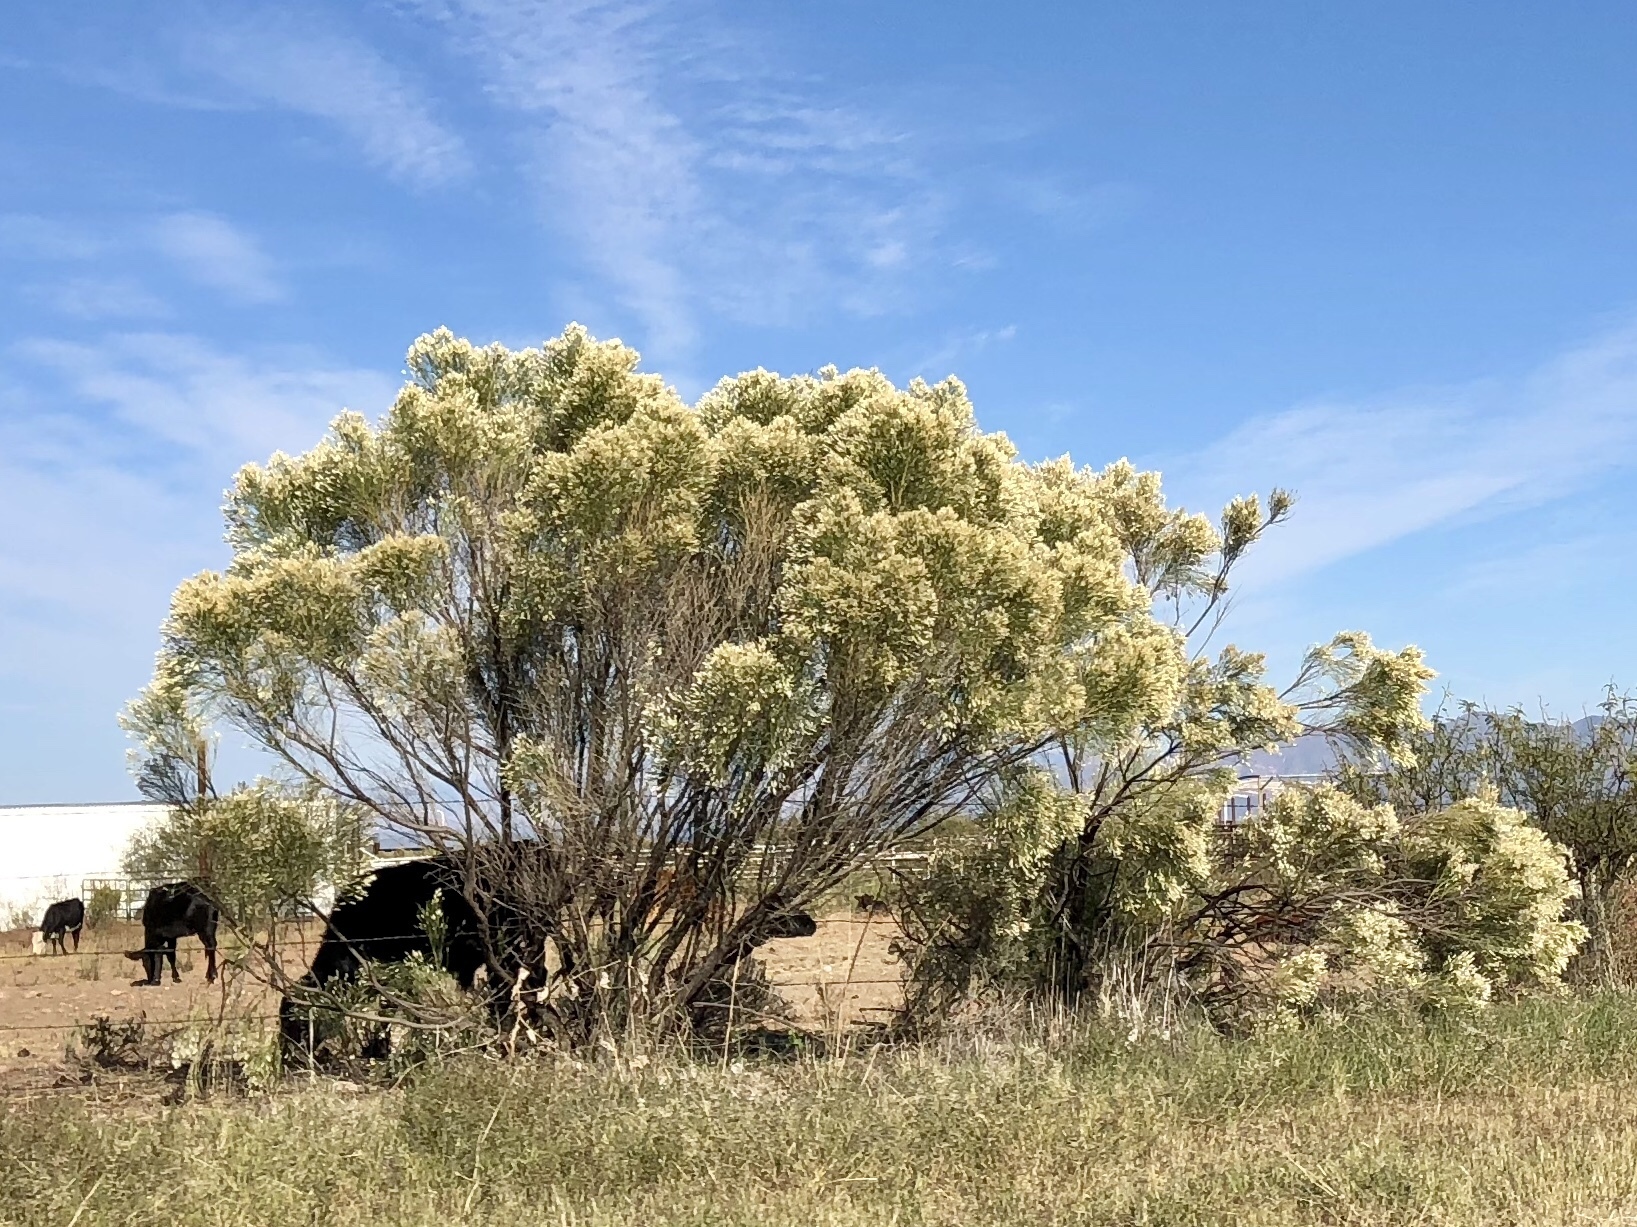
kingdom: Plantae
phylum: Tracheophyta
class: Magnoliopsida
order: Asterales
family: Asteraceae
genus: Baccharis
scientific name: Baccharis sarothroides
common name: Desert-broom
